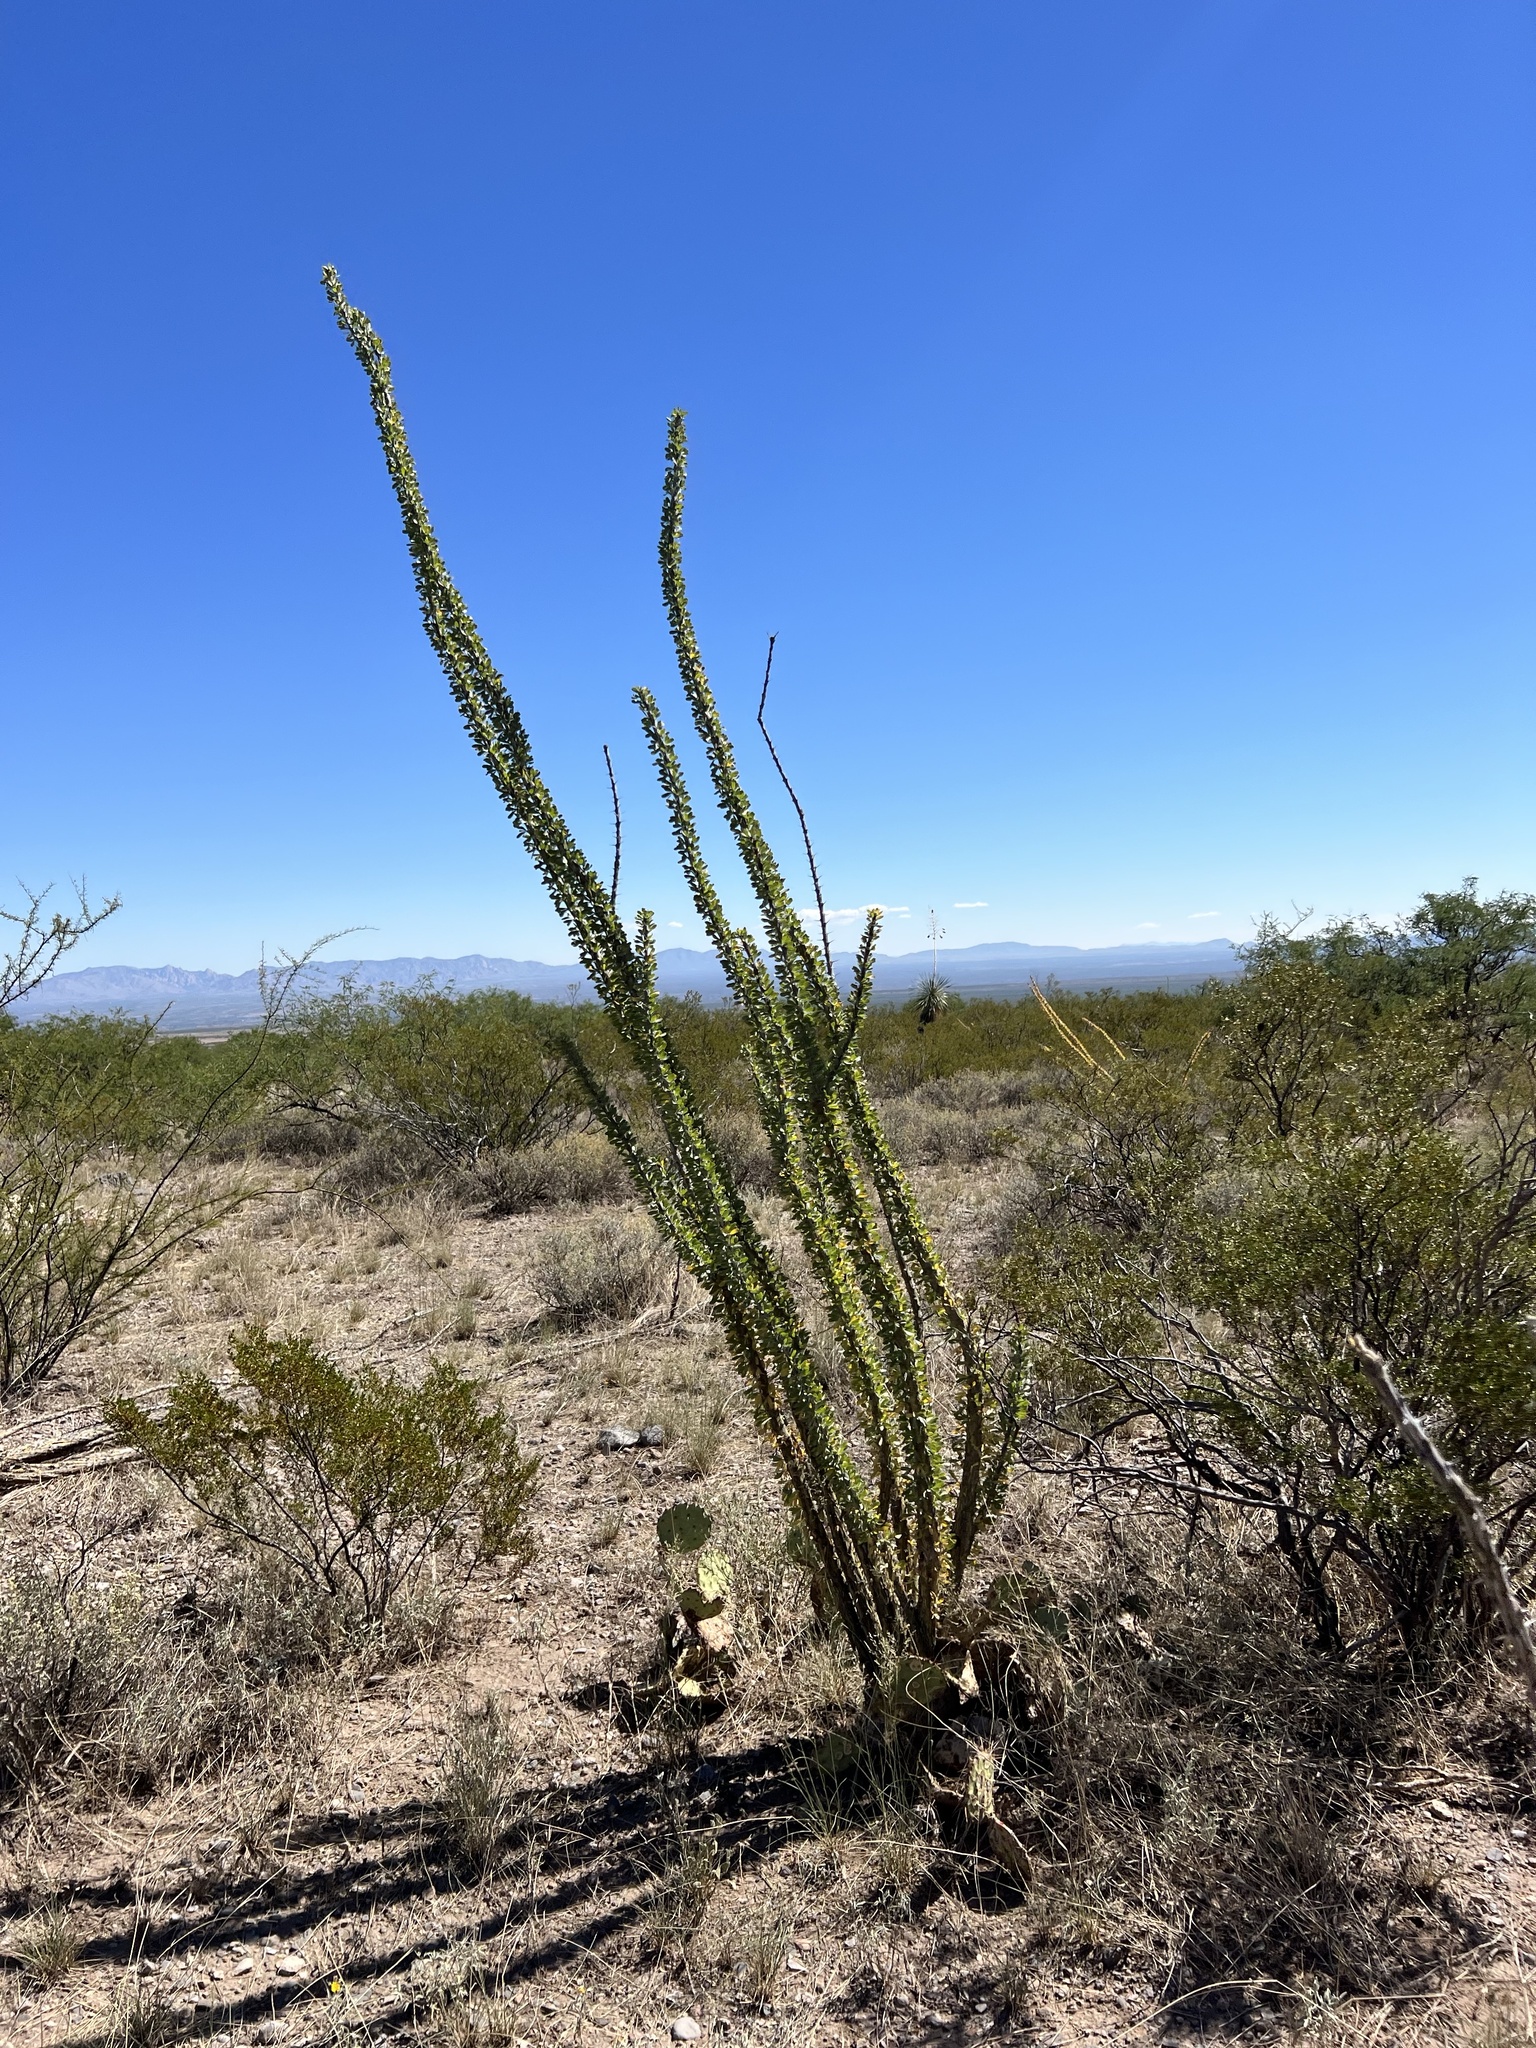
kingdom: Plantae
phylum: Tracheophyta
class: Magnoliopsida
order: Ericales
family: Fouquieriaceae
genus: Fouquieria
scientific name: Fouquieria splendens
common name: Vine-cactus
